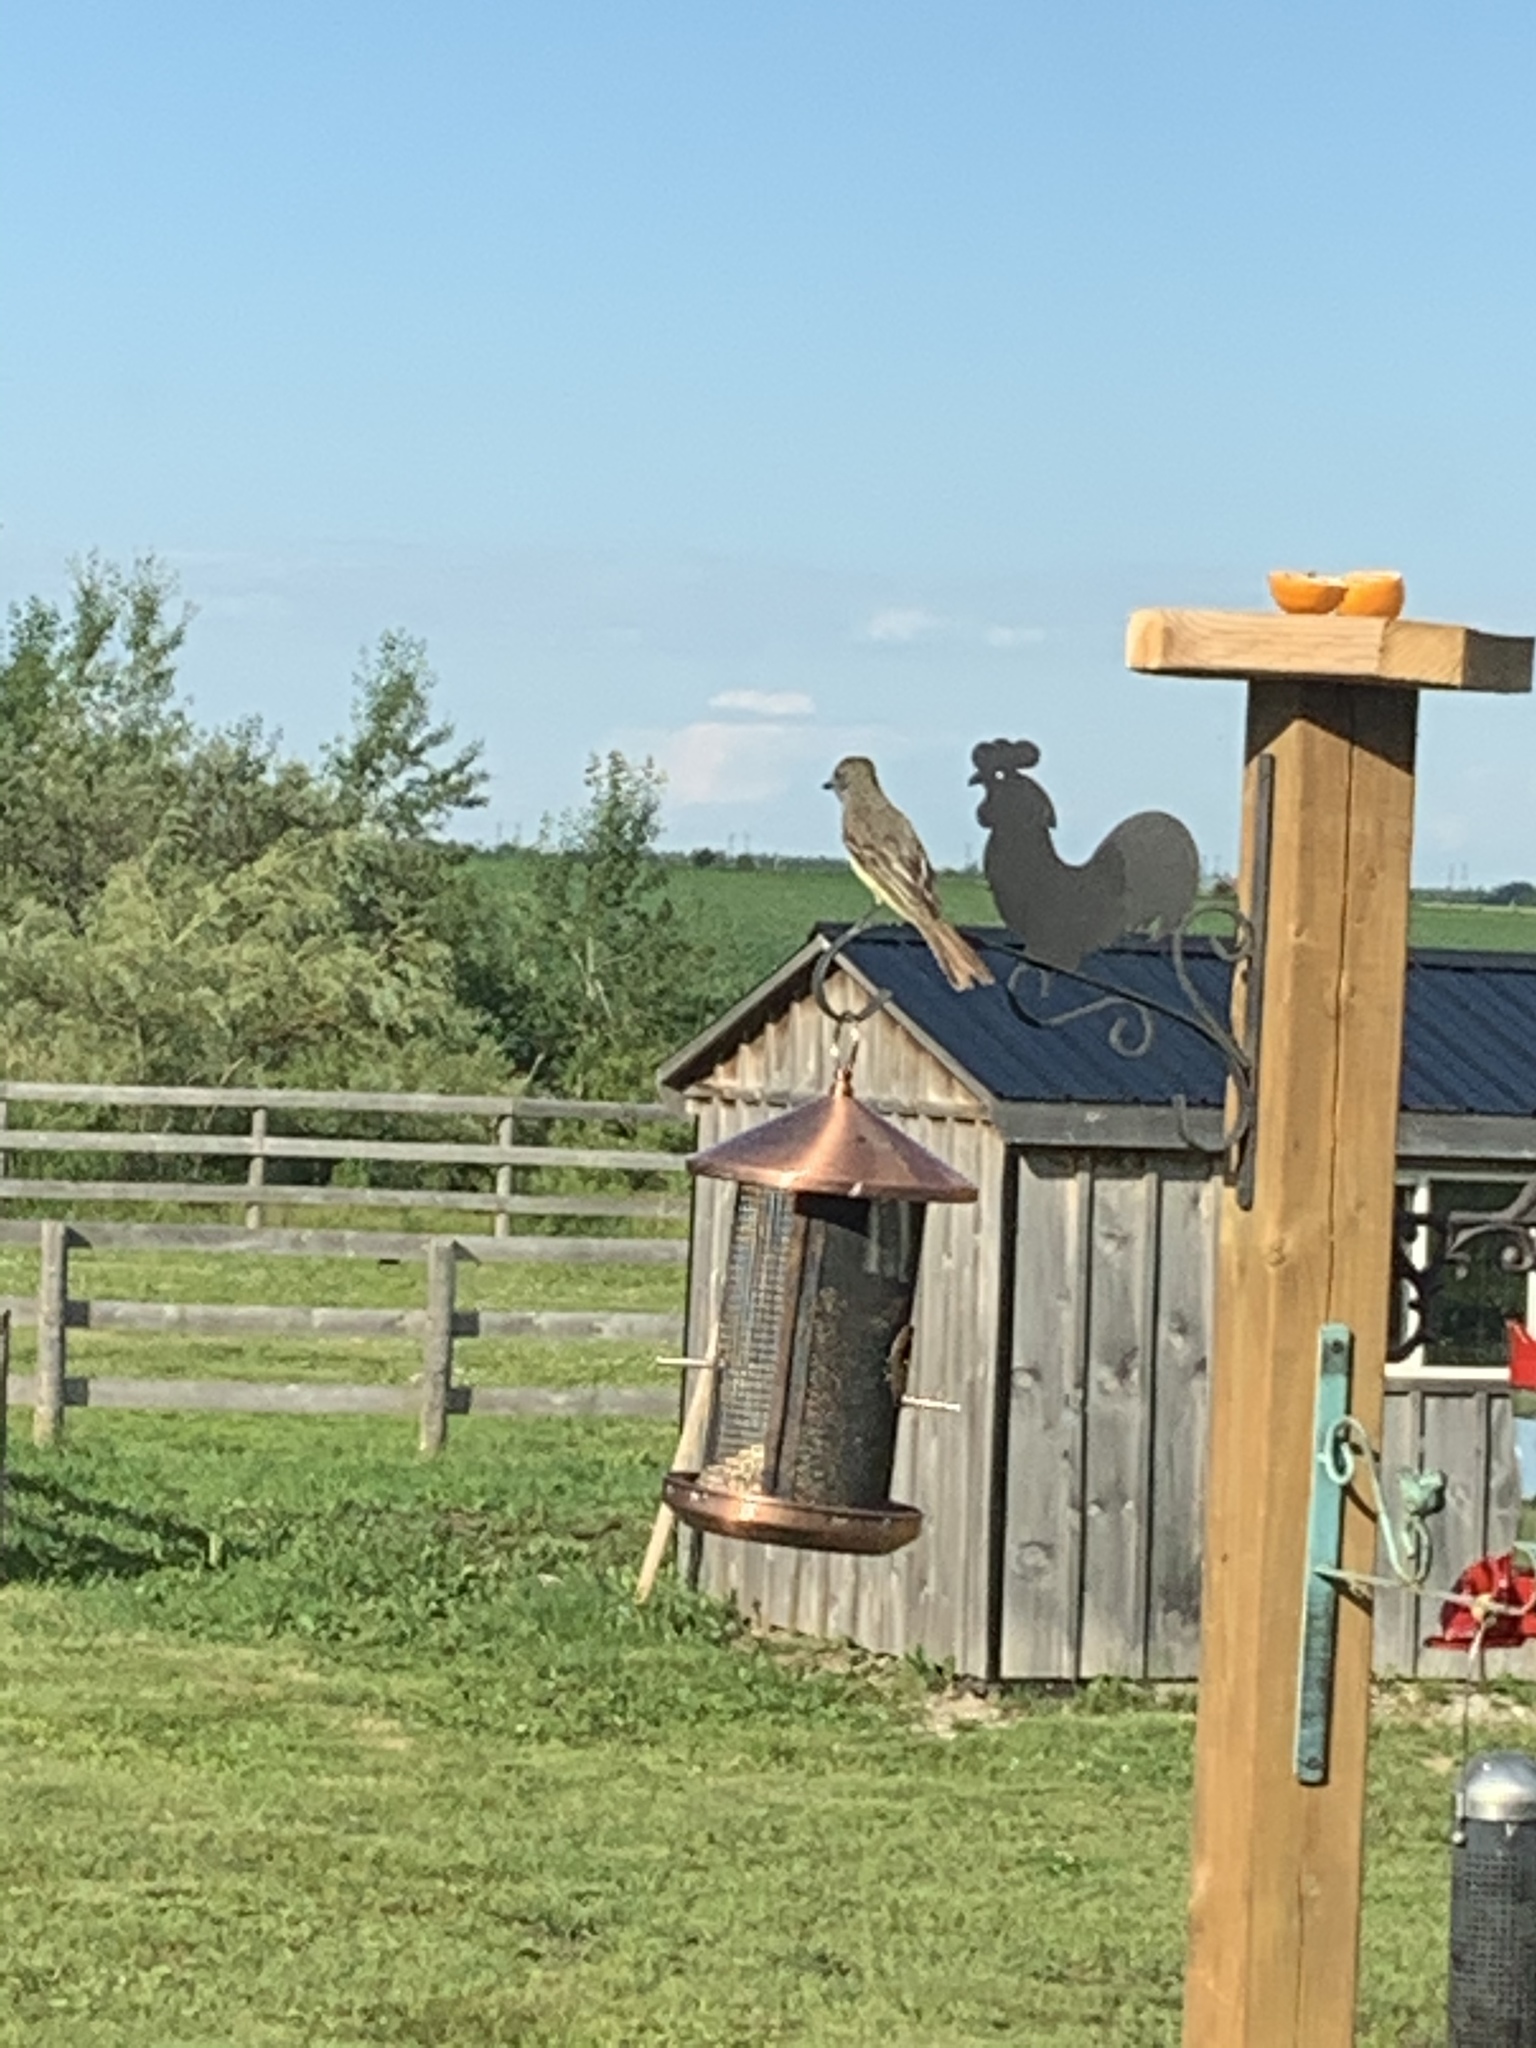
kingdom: Animalia
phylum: Chordata
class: Aves
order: Passeriformes
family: Tyrannidae
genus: Myiarchus
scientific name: Myiarchus crinitus
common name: Great crested flycatcher
